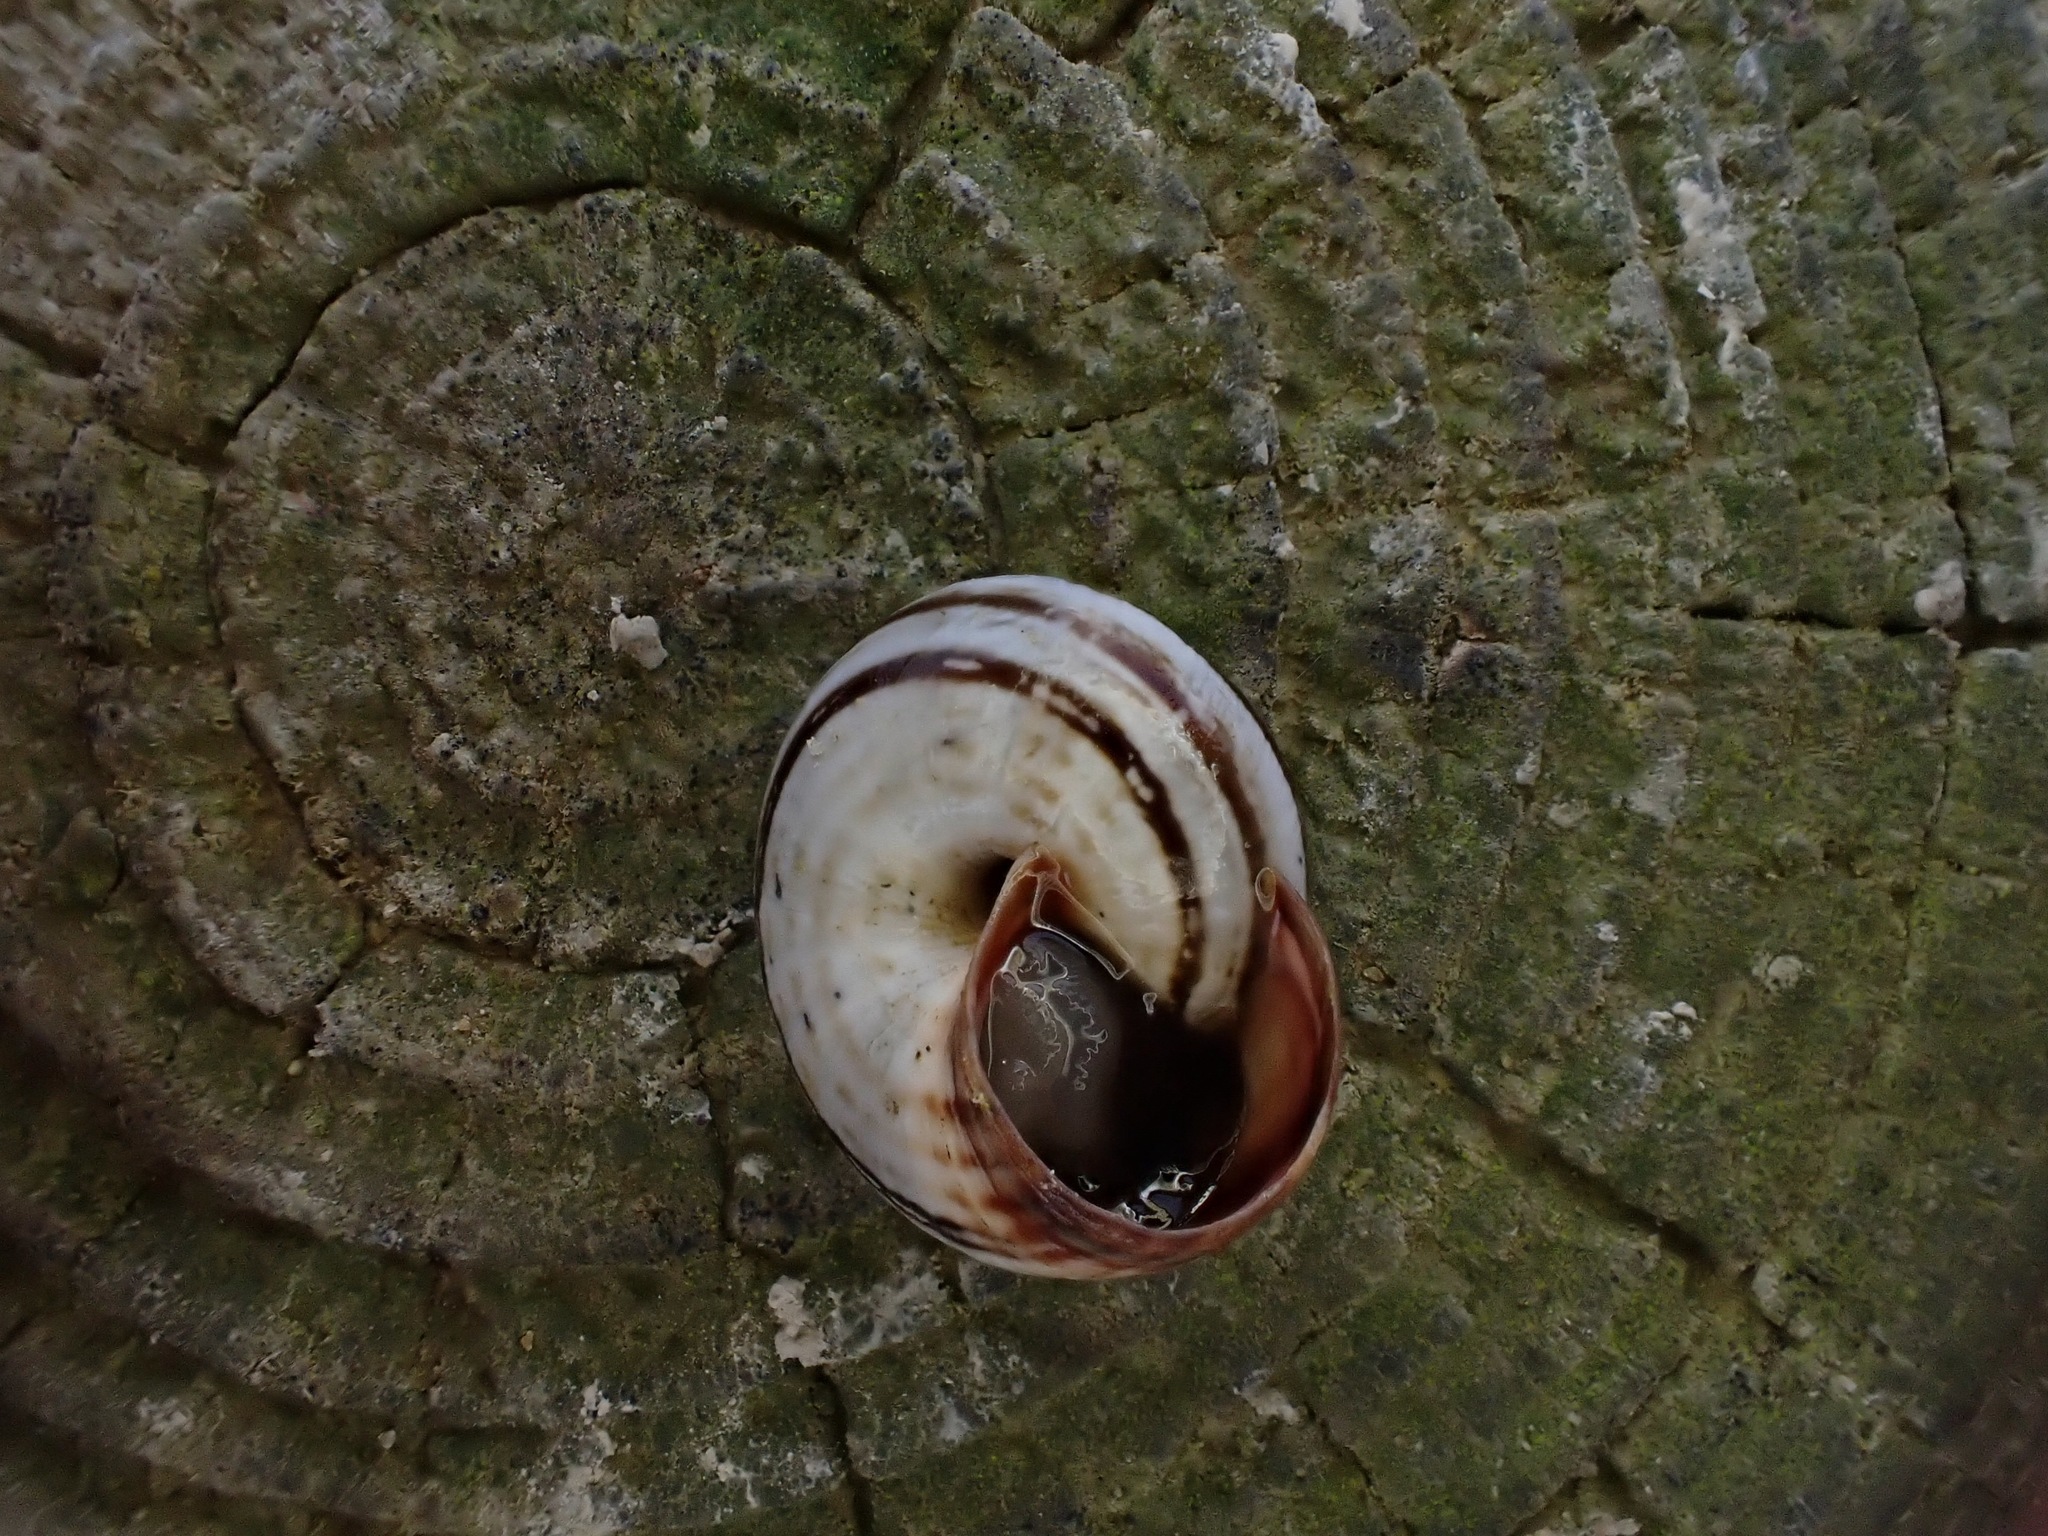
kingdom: Animalia
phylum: Mollusca
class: Gastropoda
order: Stylommatophora
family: Geomitridae
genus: Cernuella
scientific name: Cernuella virgata
